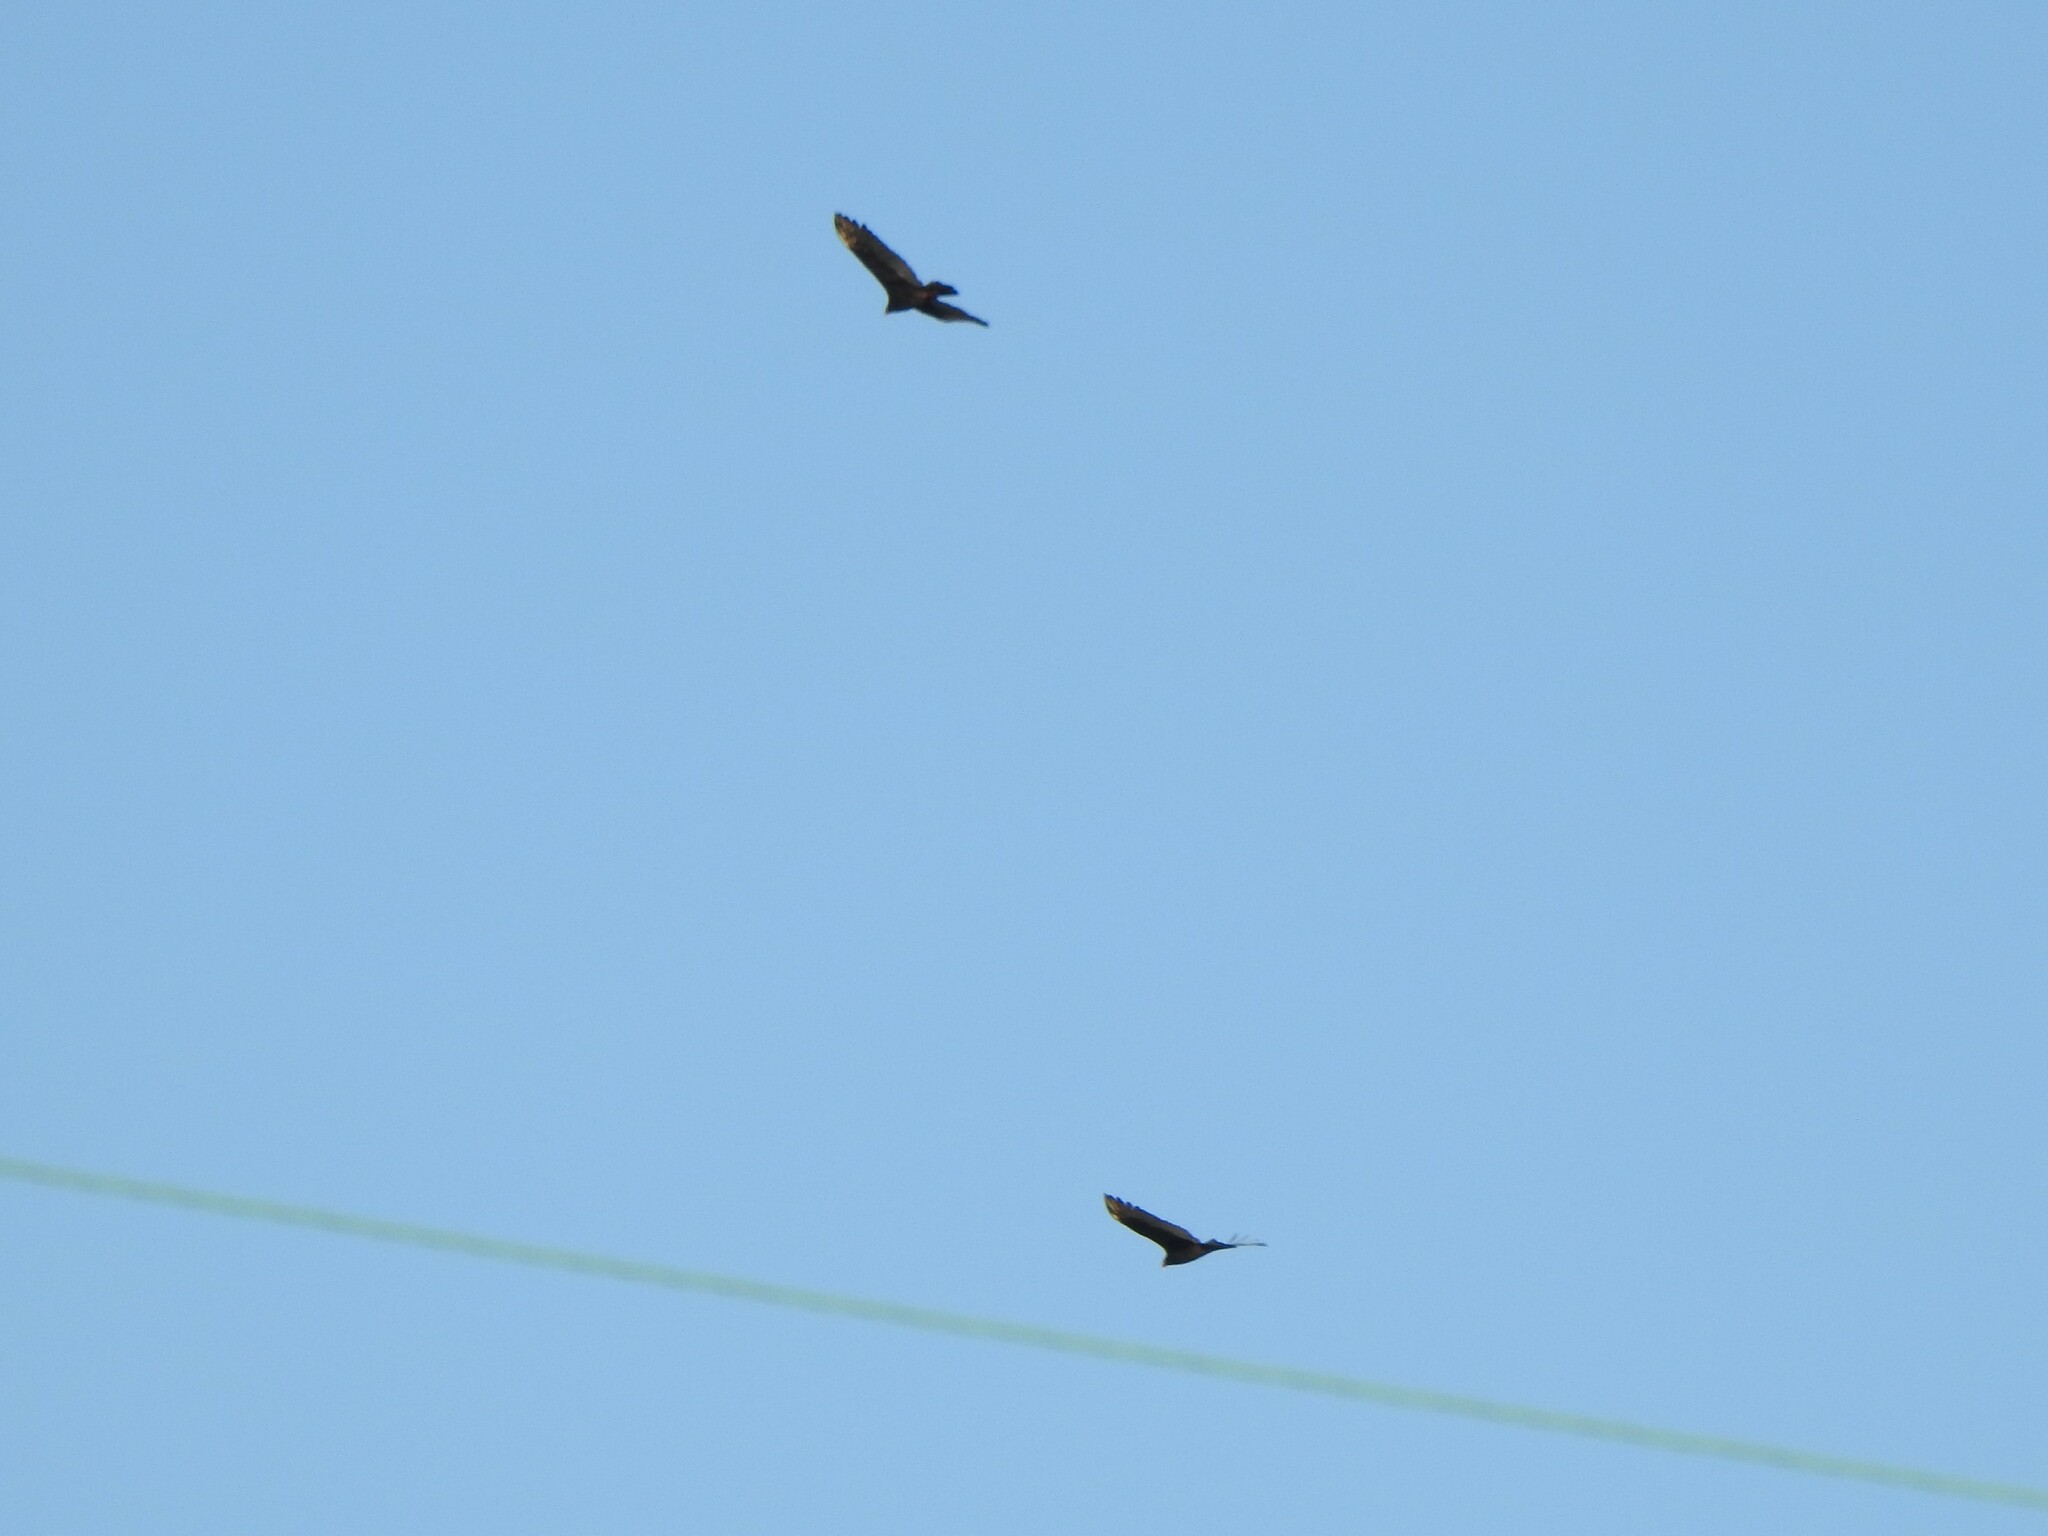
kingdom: Animalia
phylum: Chordata
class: Aves
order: Accipitriformes
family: Cathartidae
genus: Cathartes
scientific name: Cathartes aura
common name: Turkey vulture
